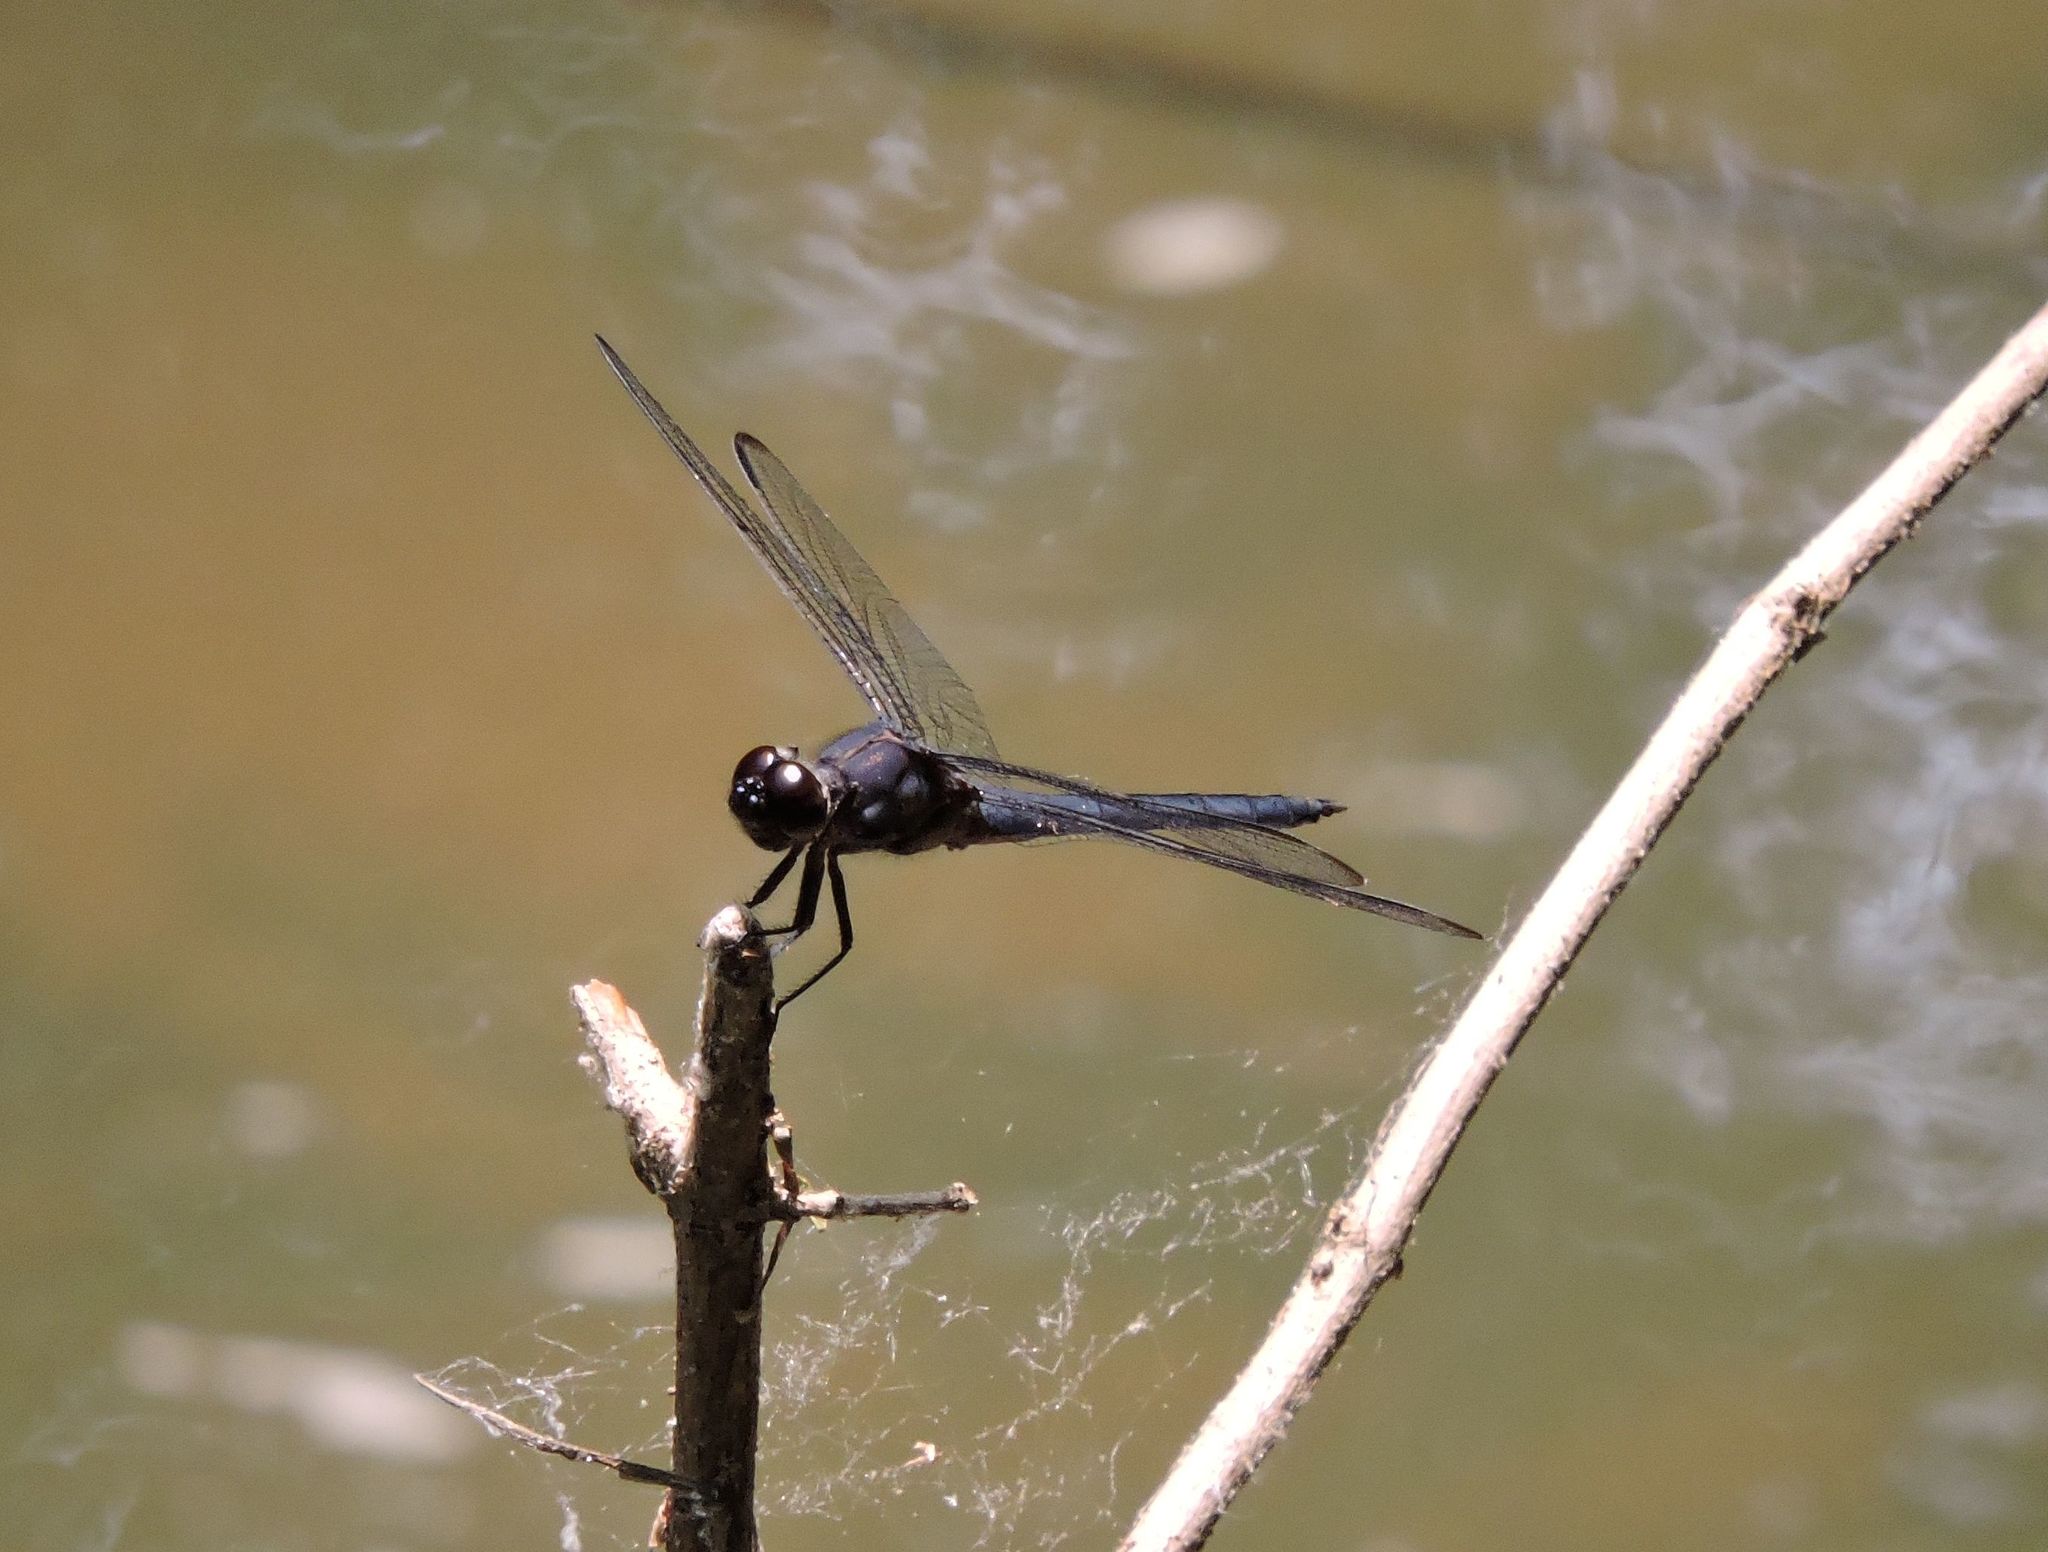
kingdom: Animalia
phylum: Arthropoda
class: Insecta
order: Odonata
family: Libellulidae
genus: Libellula
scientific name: Libellula incesta
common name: Slaty skimmer
